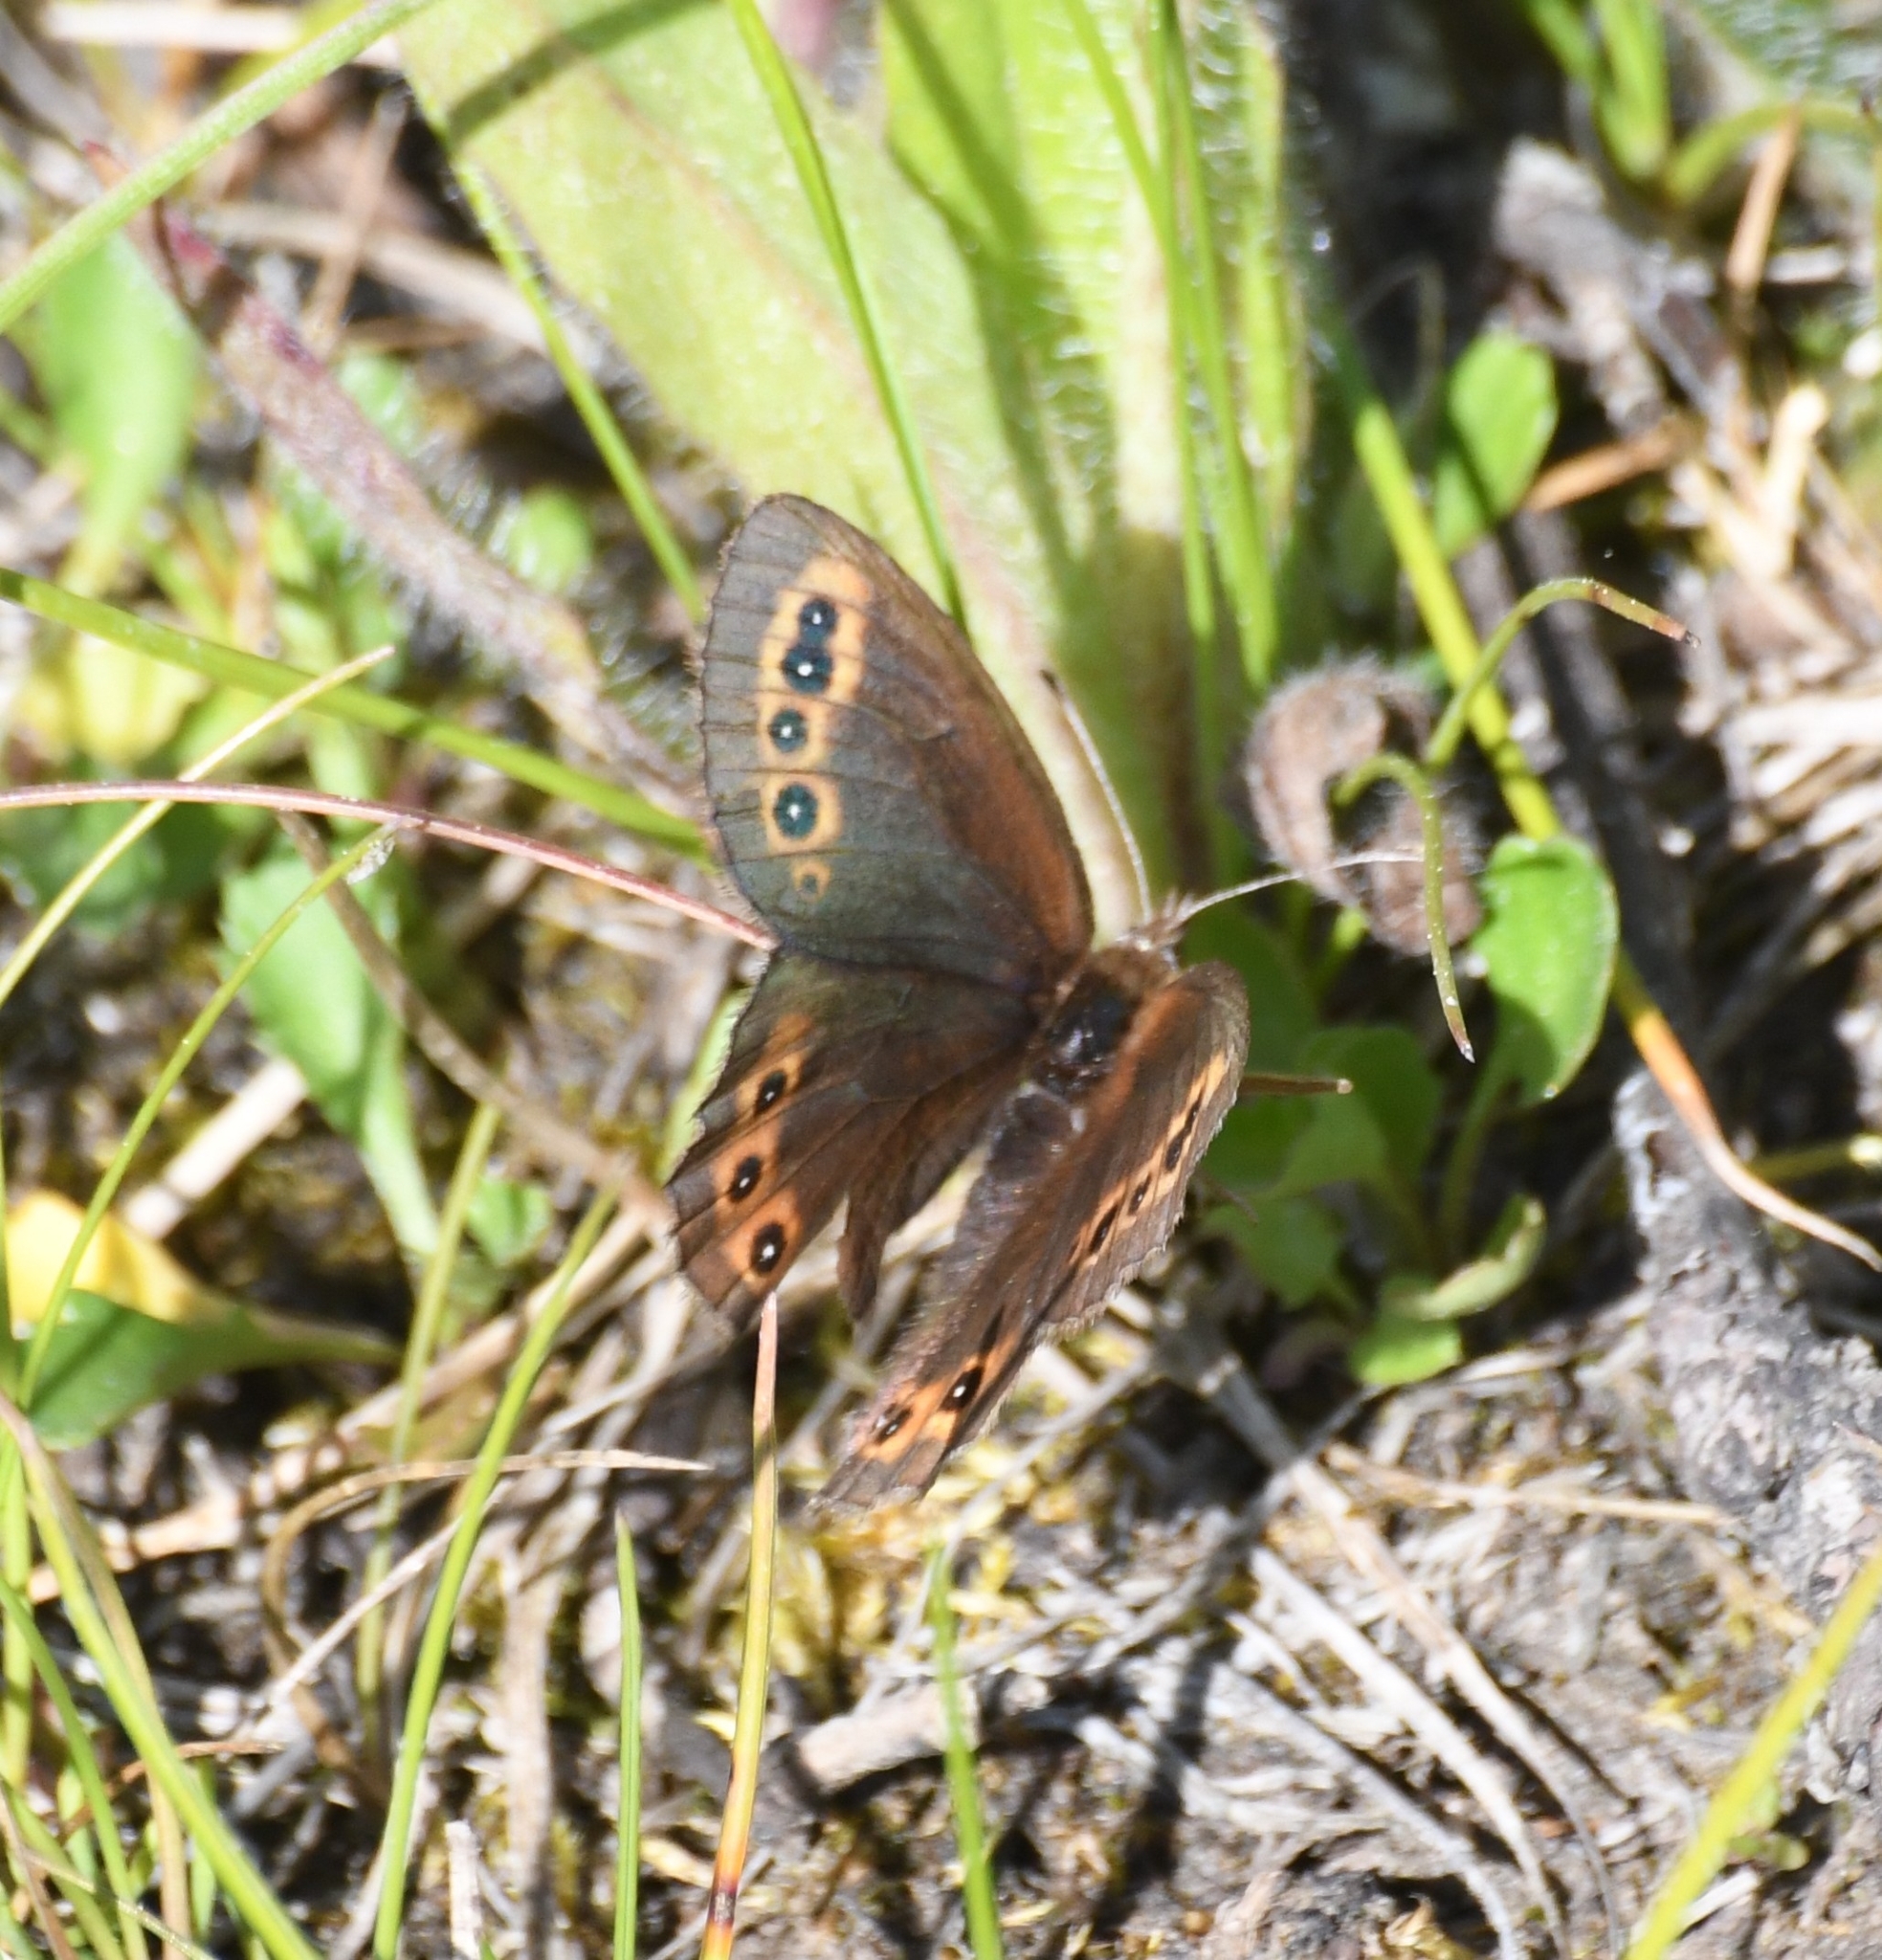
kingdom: Animalia
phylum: Arthropoda
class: Insecta
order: Lepidoptera
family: Nymphalidae
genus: Erebia
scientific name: Erebia epipsodea
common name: Common alpine
